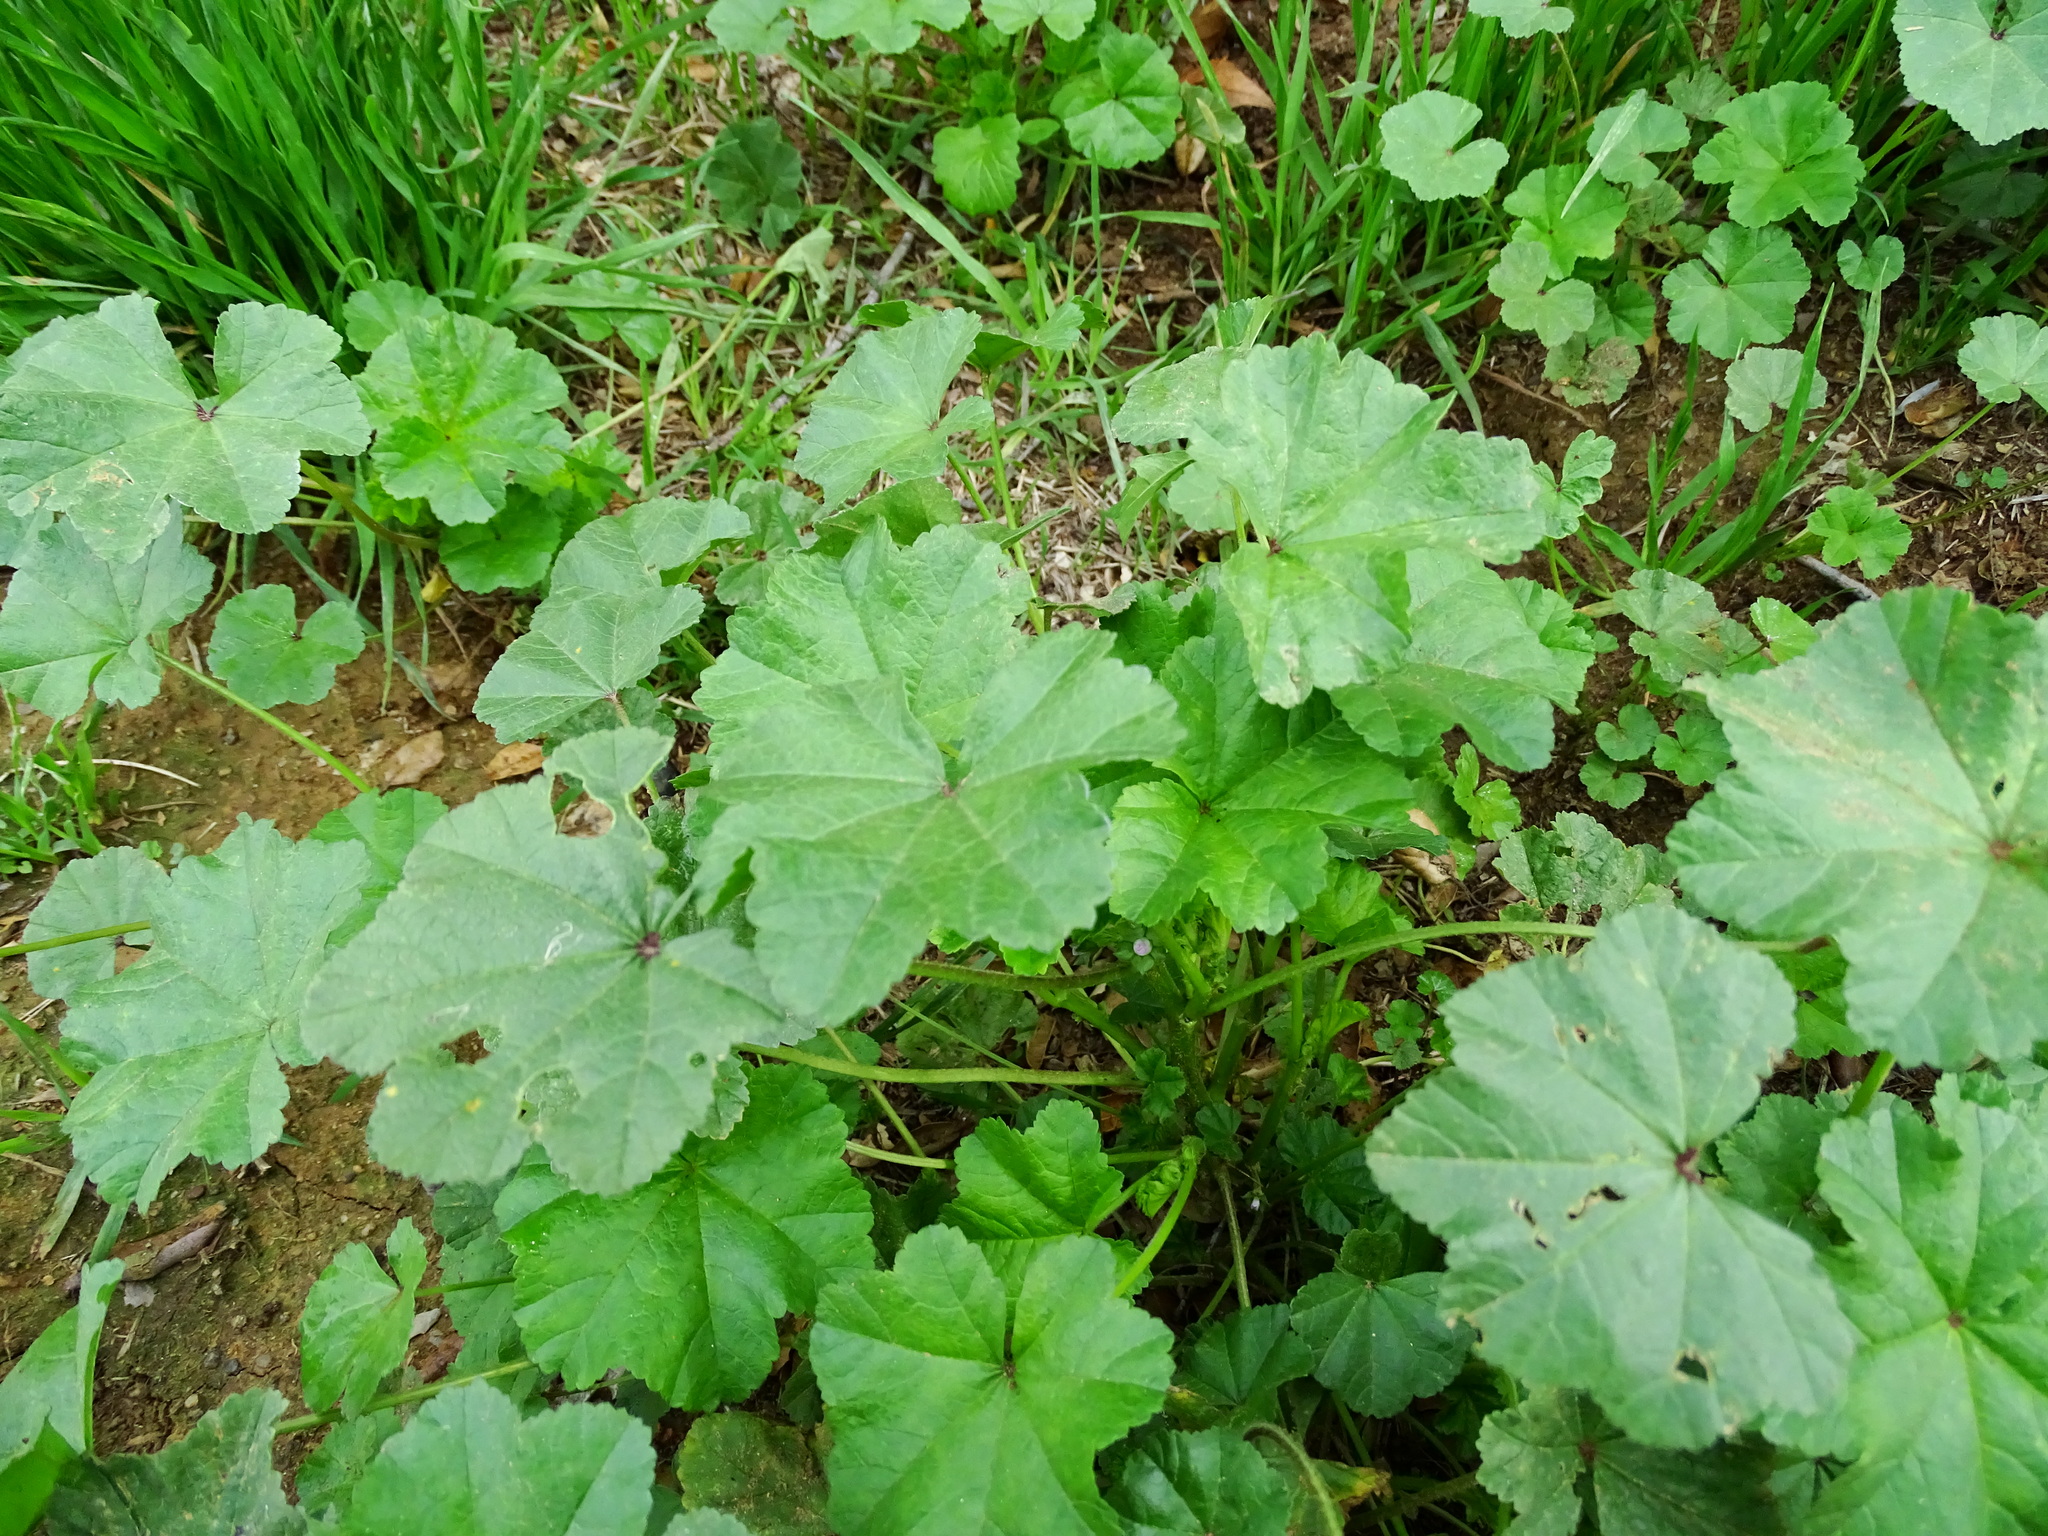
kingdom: Plantae
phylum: Tracheophyta
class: Magnoliopsida
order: Malvales
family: Malvaceae
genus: Malva
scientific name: Malva parviflora
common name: Least mallow
